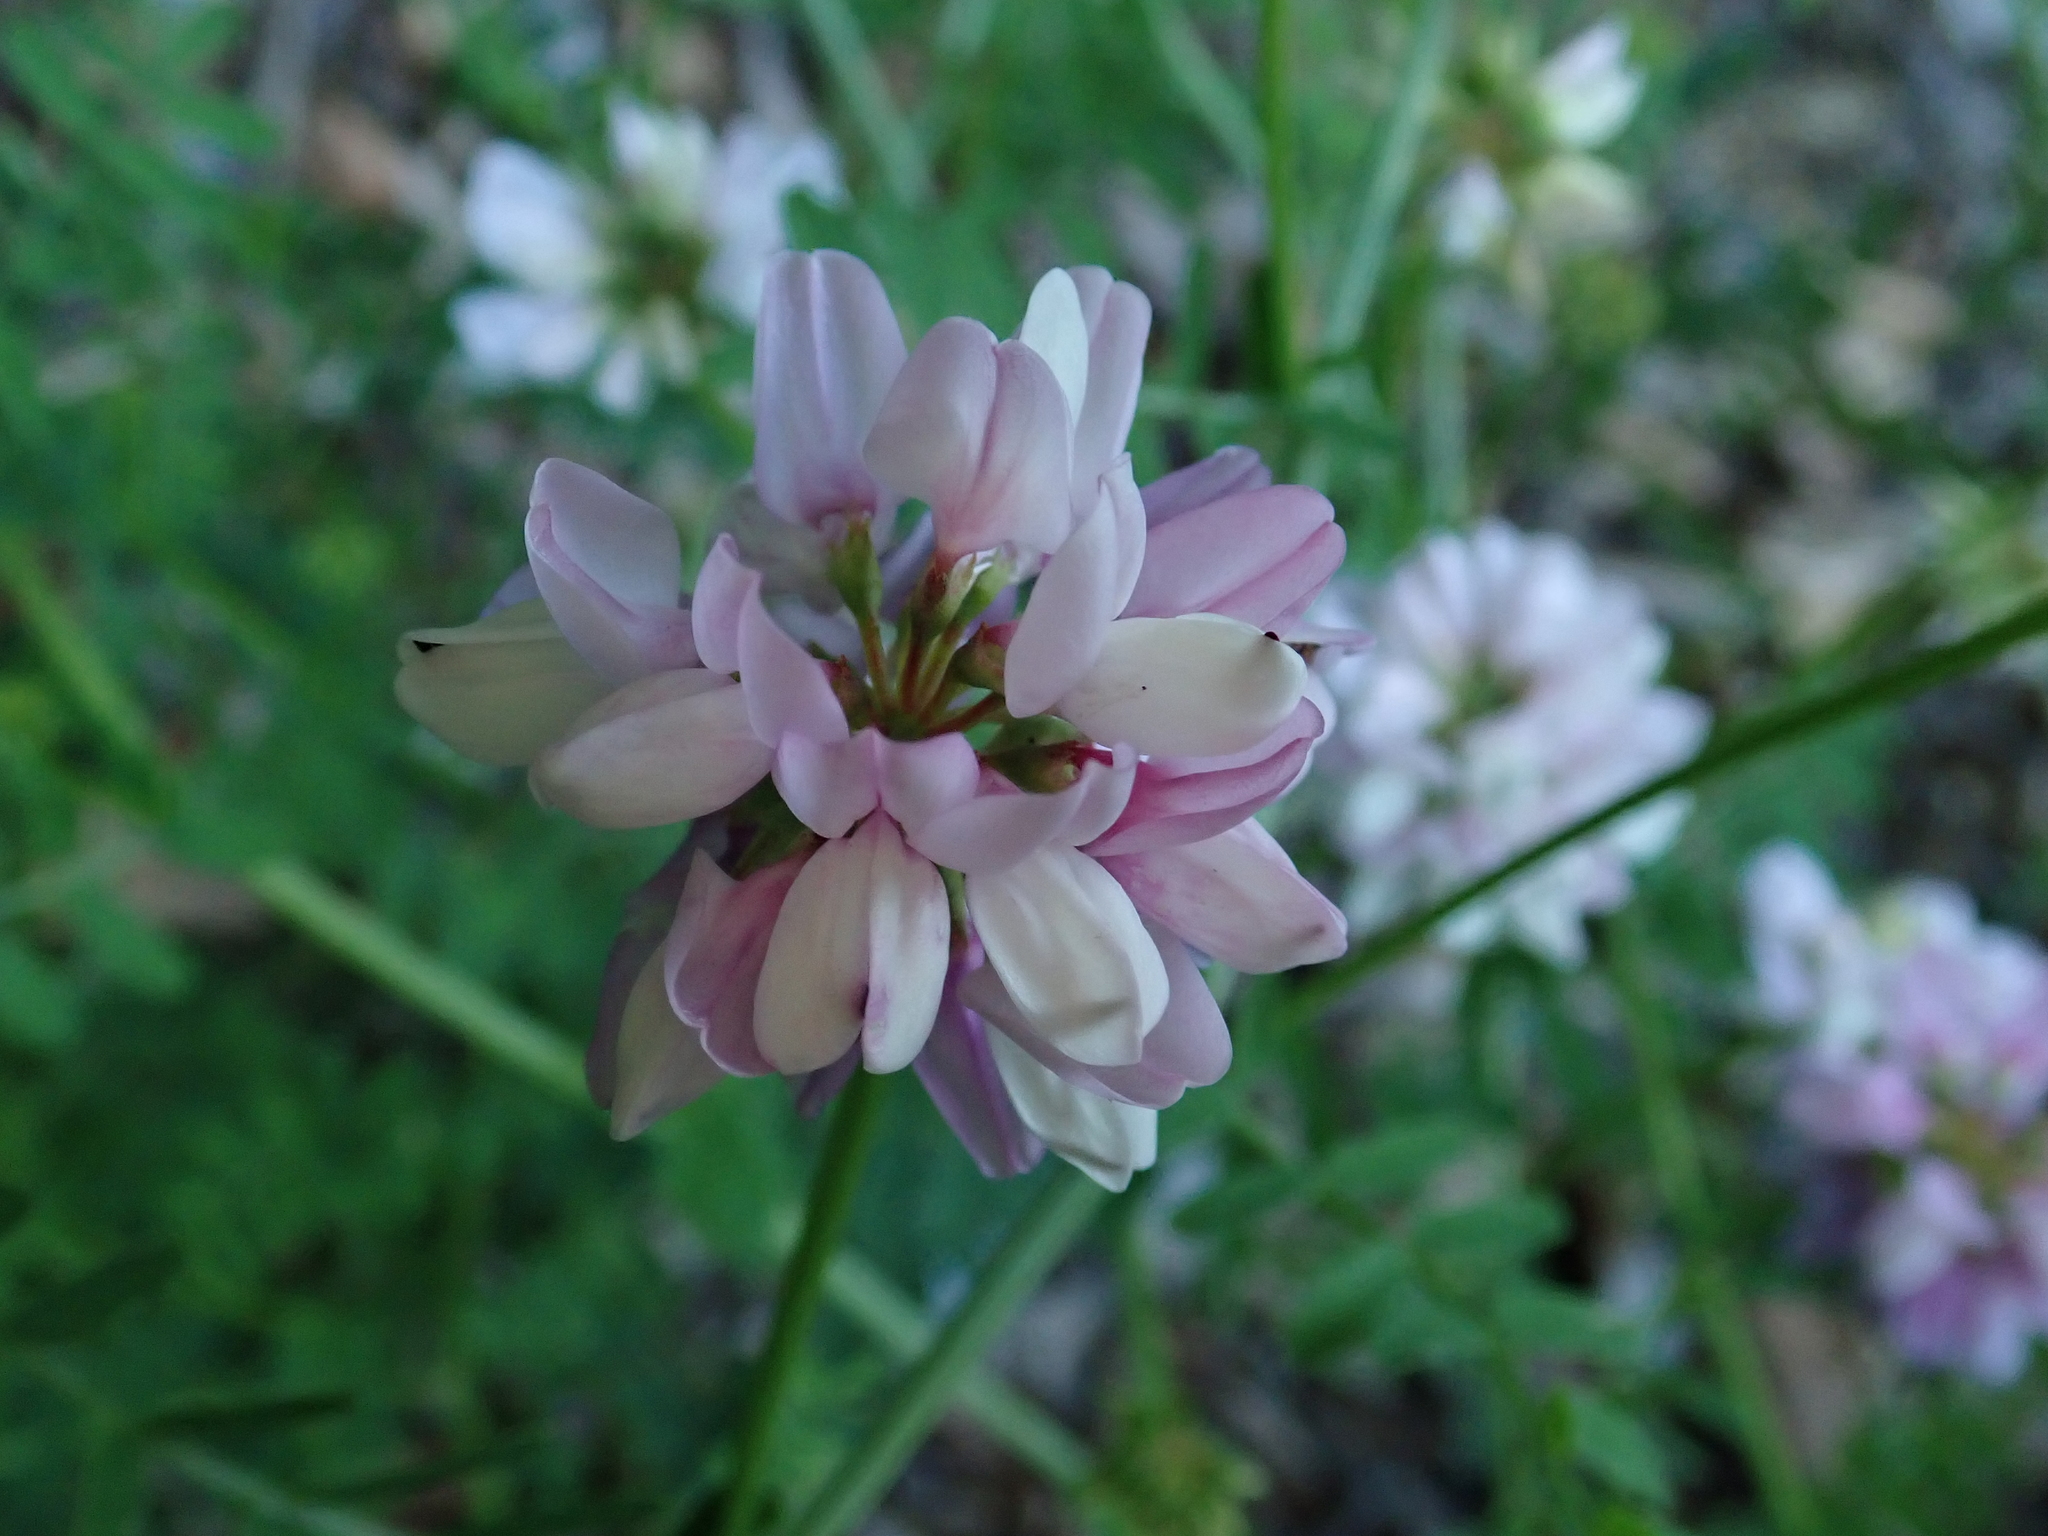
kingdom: Plantae
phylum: Tracheophyta
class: Magnoliopsida
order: Fabales
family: Fabaceae
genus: Coronilla
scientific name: Coronilla varia
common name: Crownvetch
